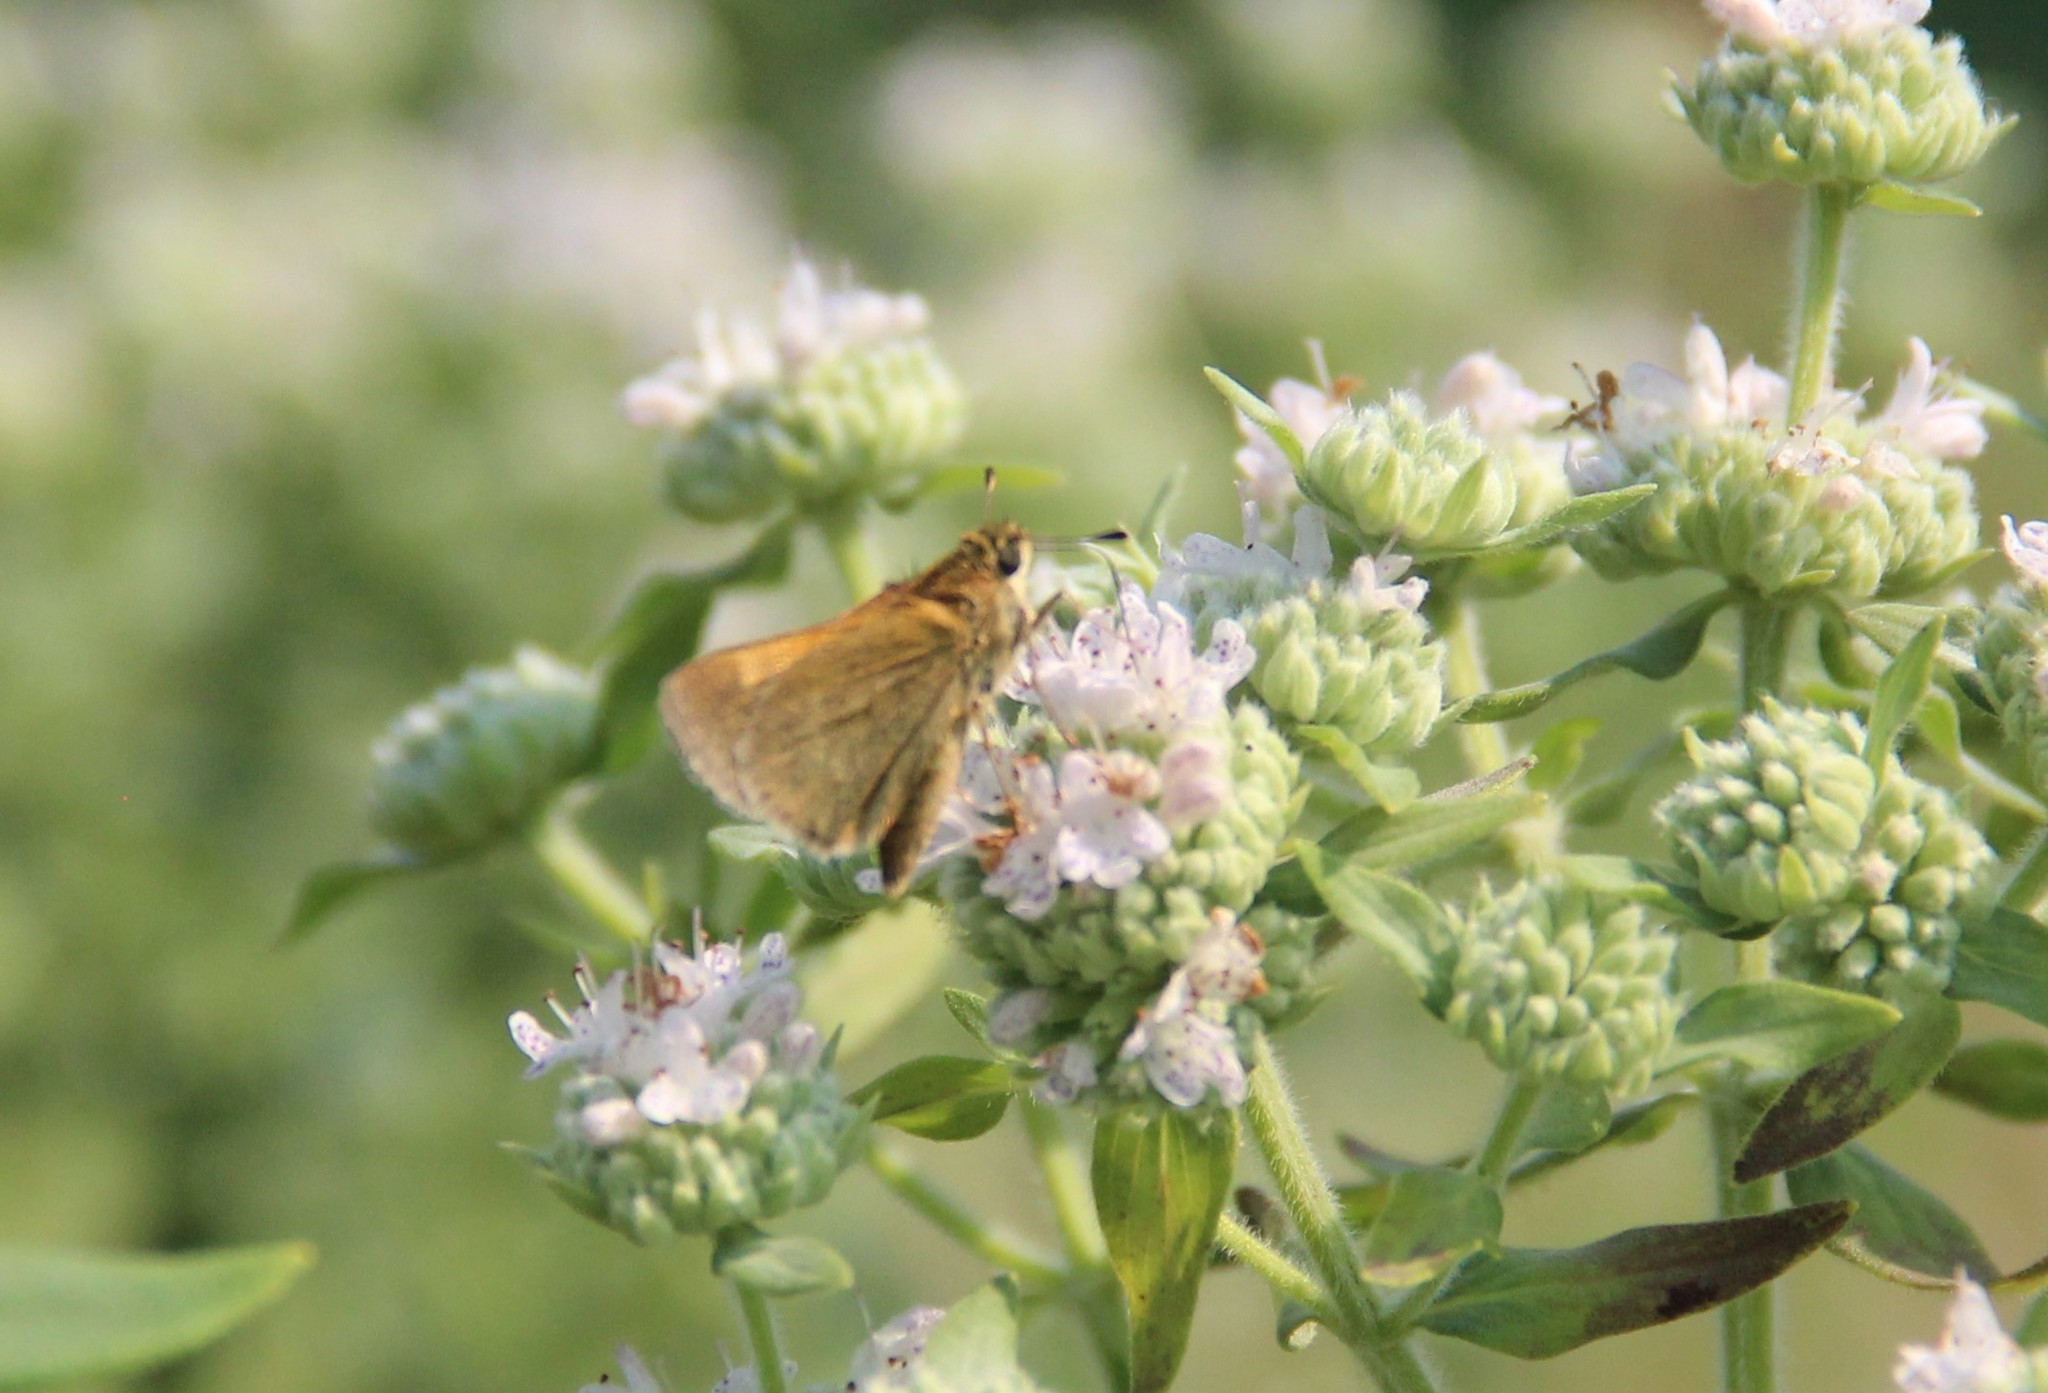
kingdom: Animalia
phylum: Arthropoda
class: Insecta
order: Lepidoptera
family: Hesperiidae
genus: Polites
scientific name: Polites themistocles
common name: Tawny-edged skipper
